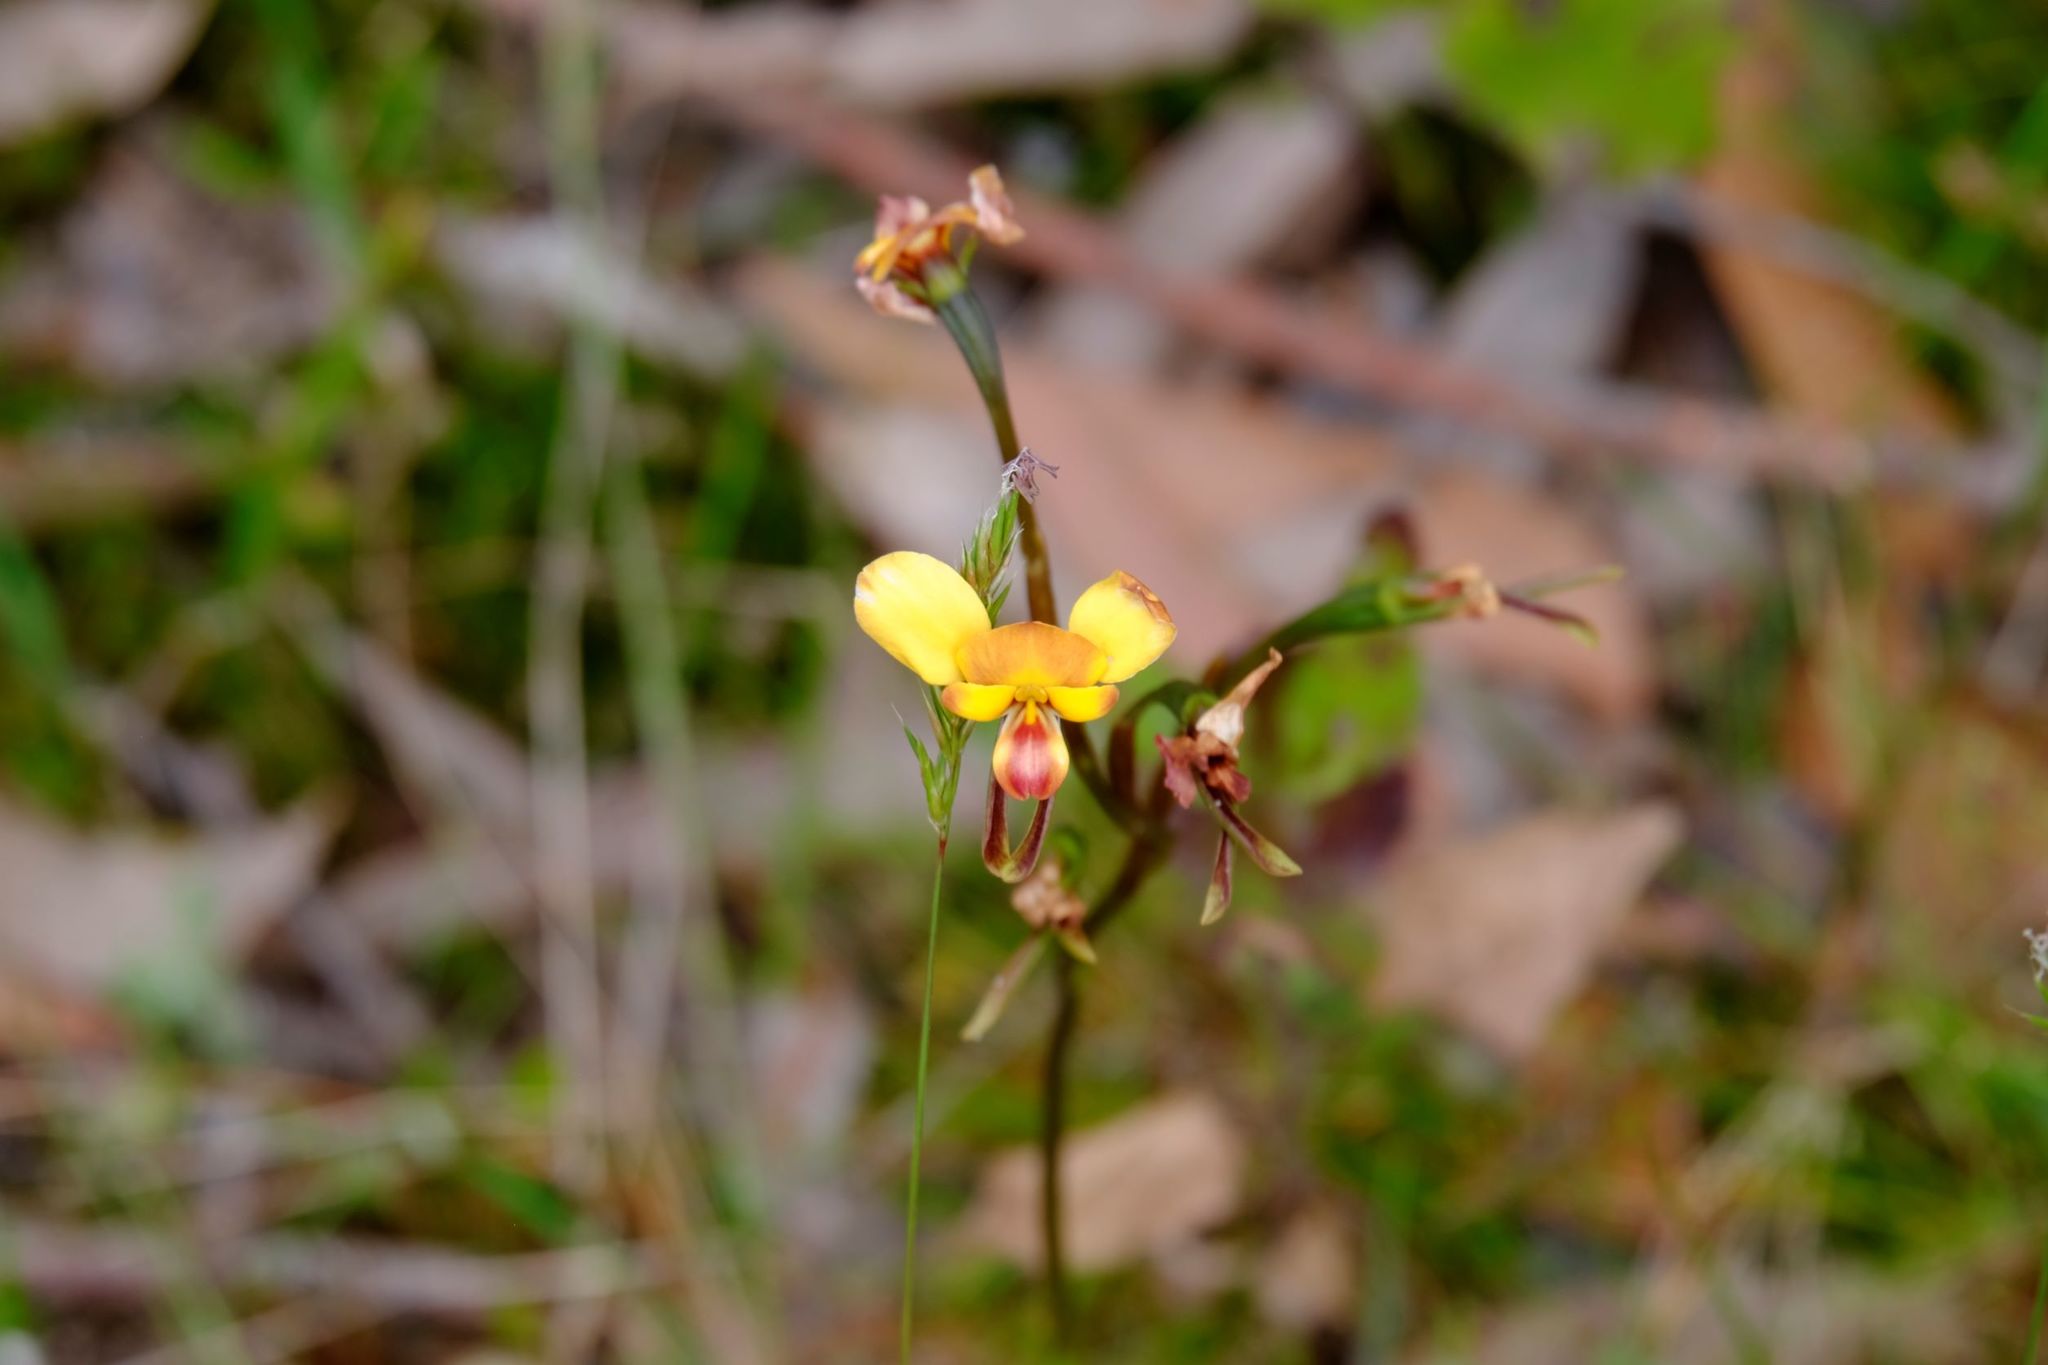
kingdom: Plantae
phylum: Tracheophyta
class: Liliopsida
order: Asparagales
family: Orchidaceae
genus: Diuris
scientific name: Diuris orientis
